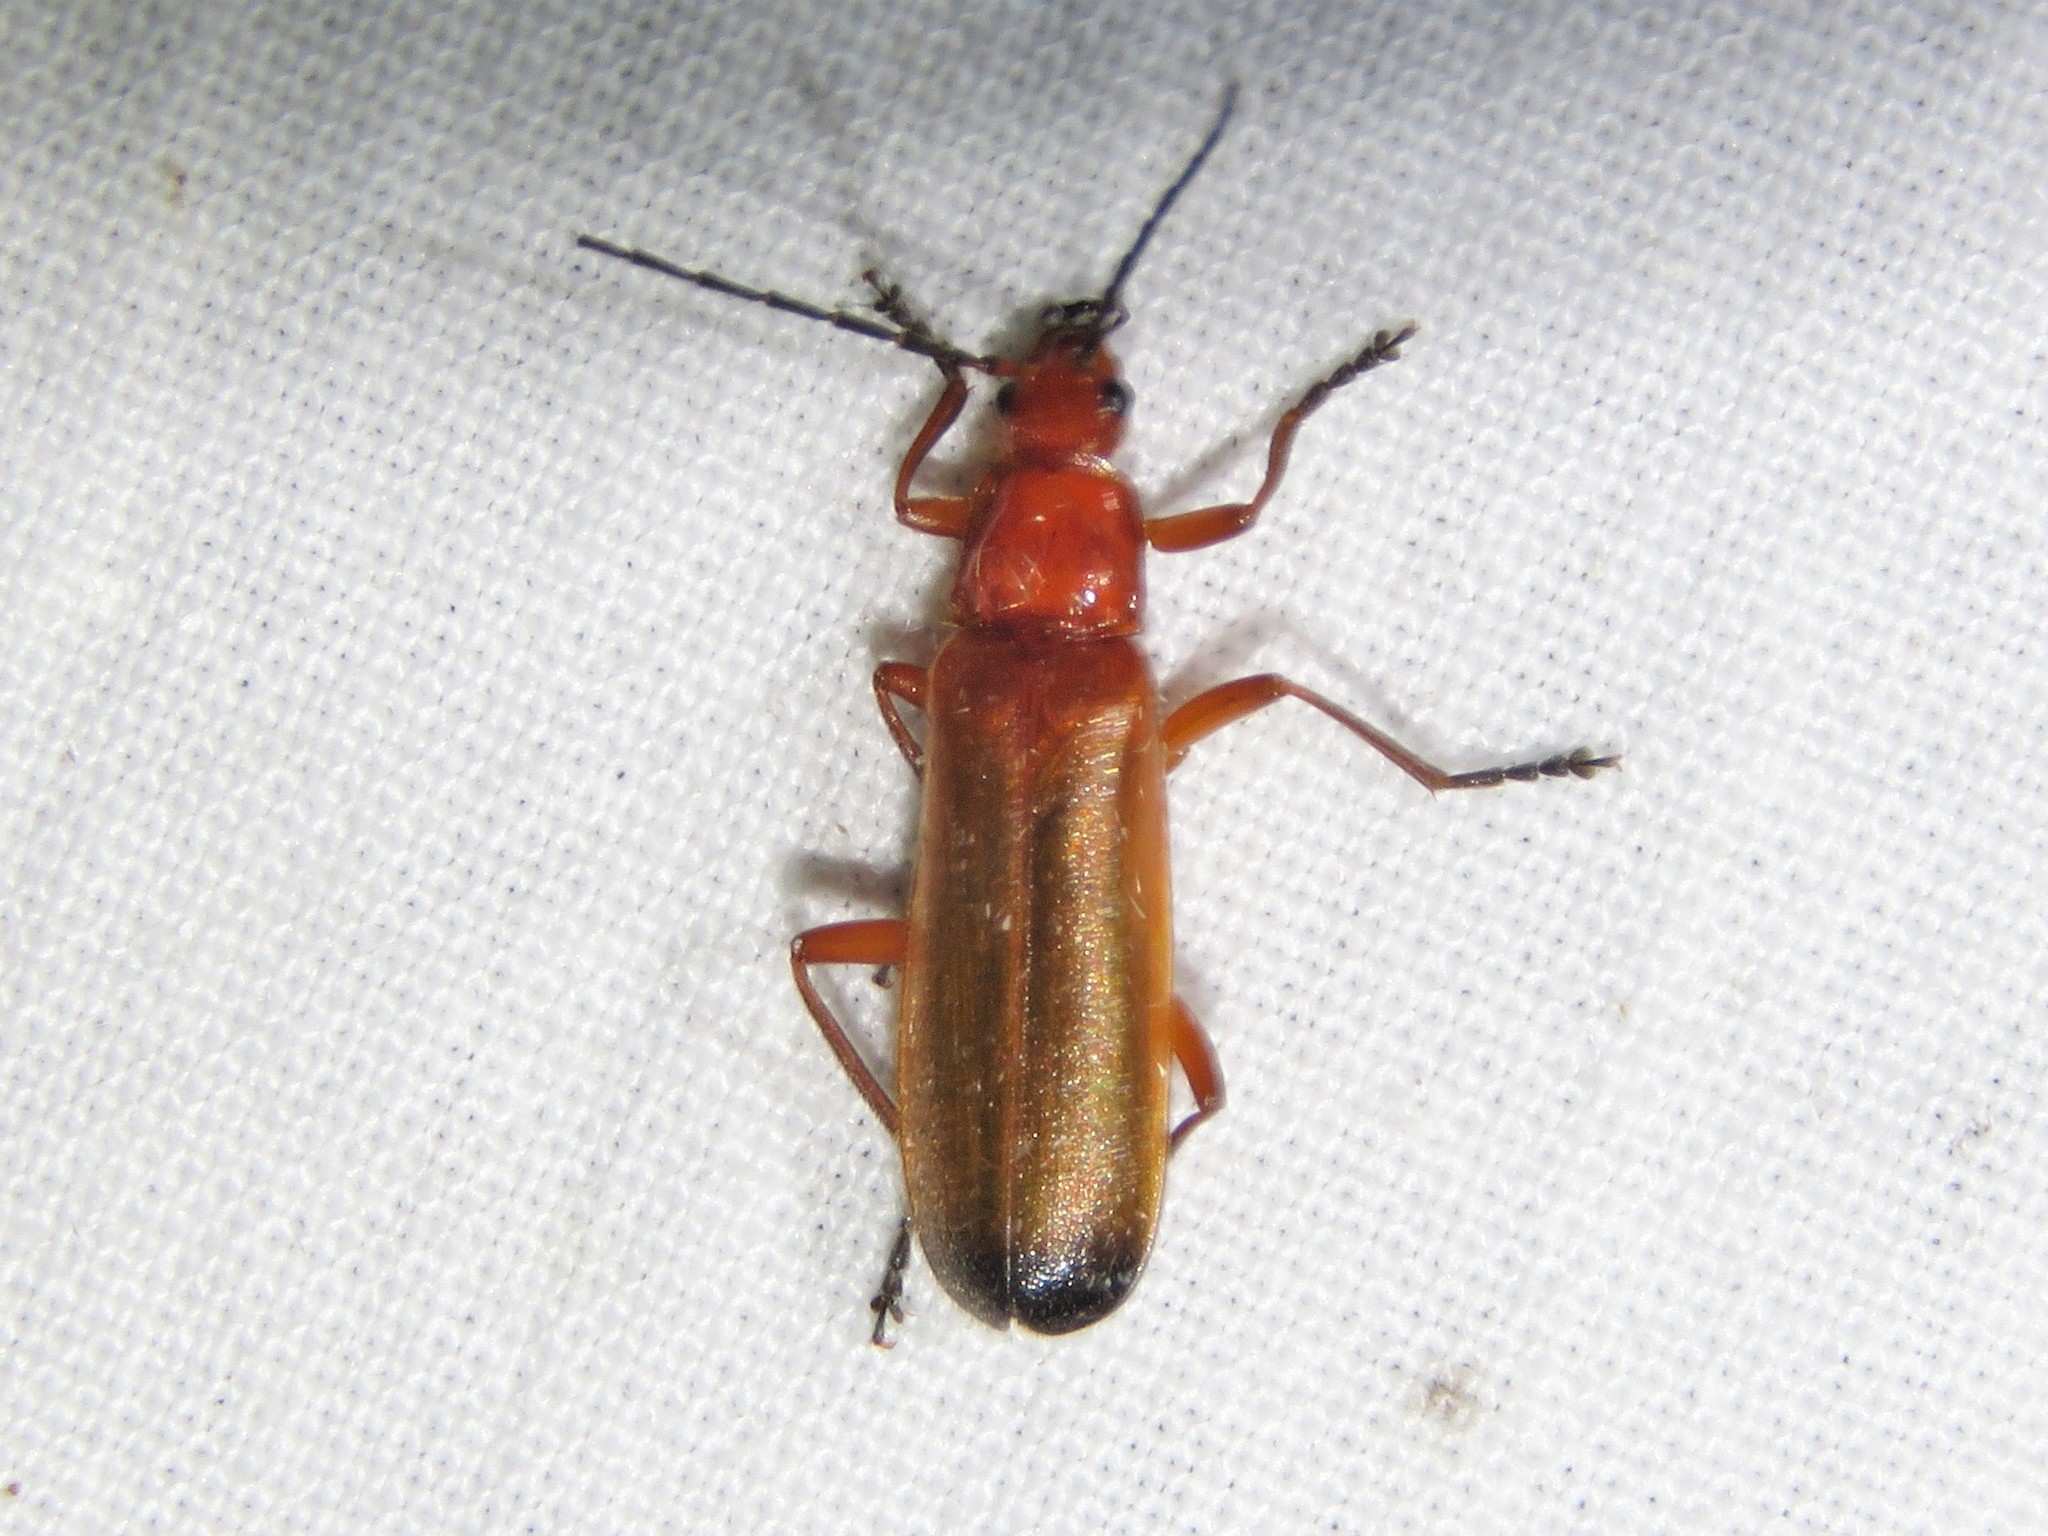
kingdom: Animalia
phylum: Arthropoda
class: Insecta
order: Coleoptera
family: Cantharidae
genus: Rhagonycha
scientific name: Rhagonycha fulva
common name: Common red soldier beetle
